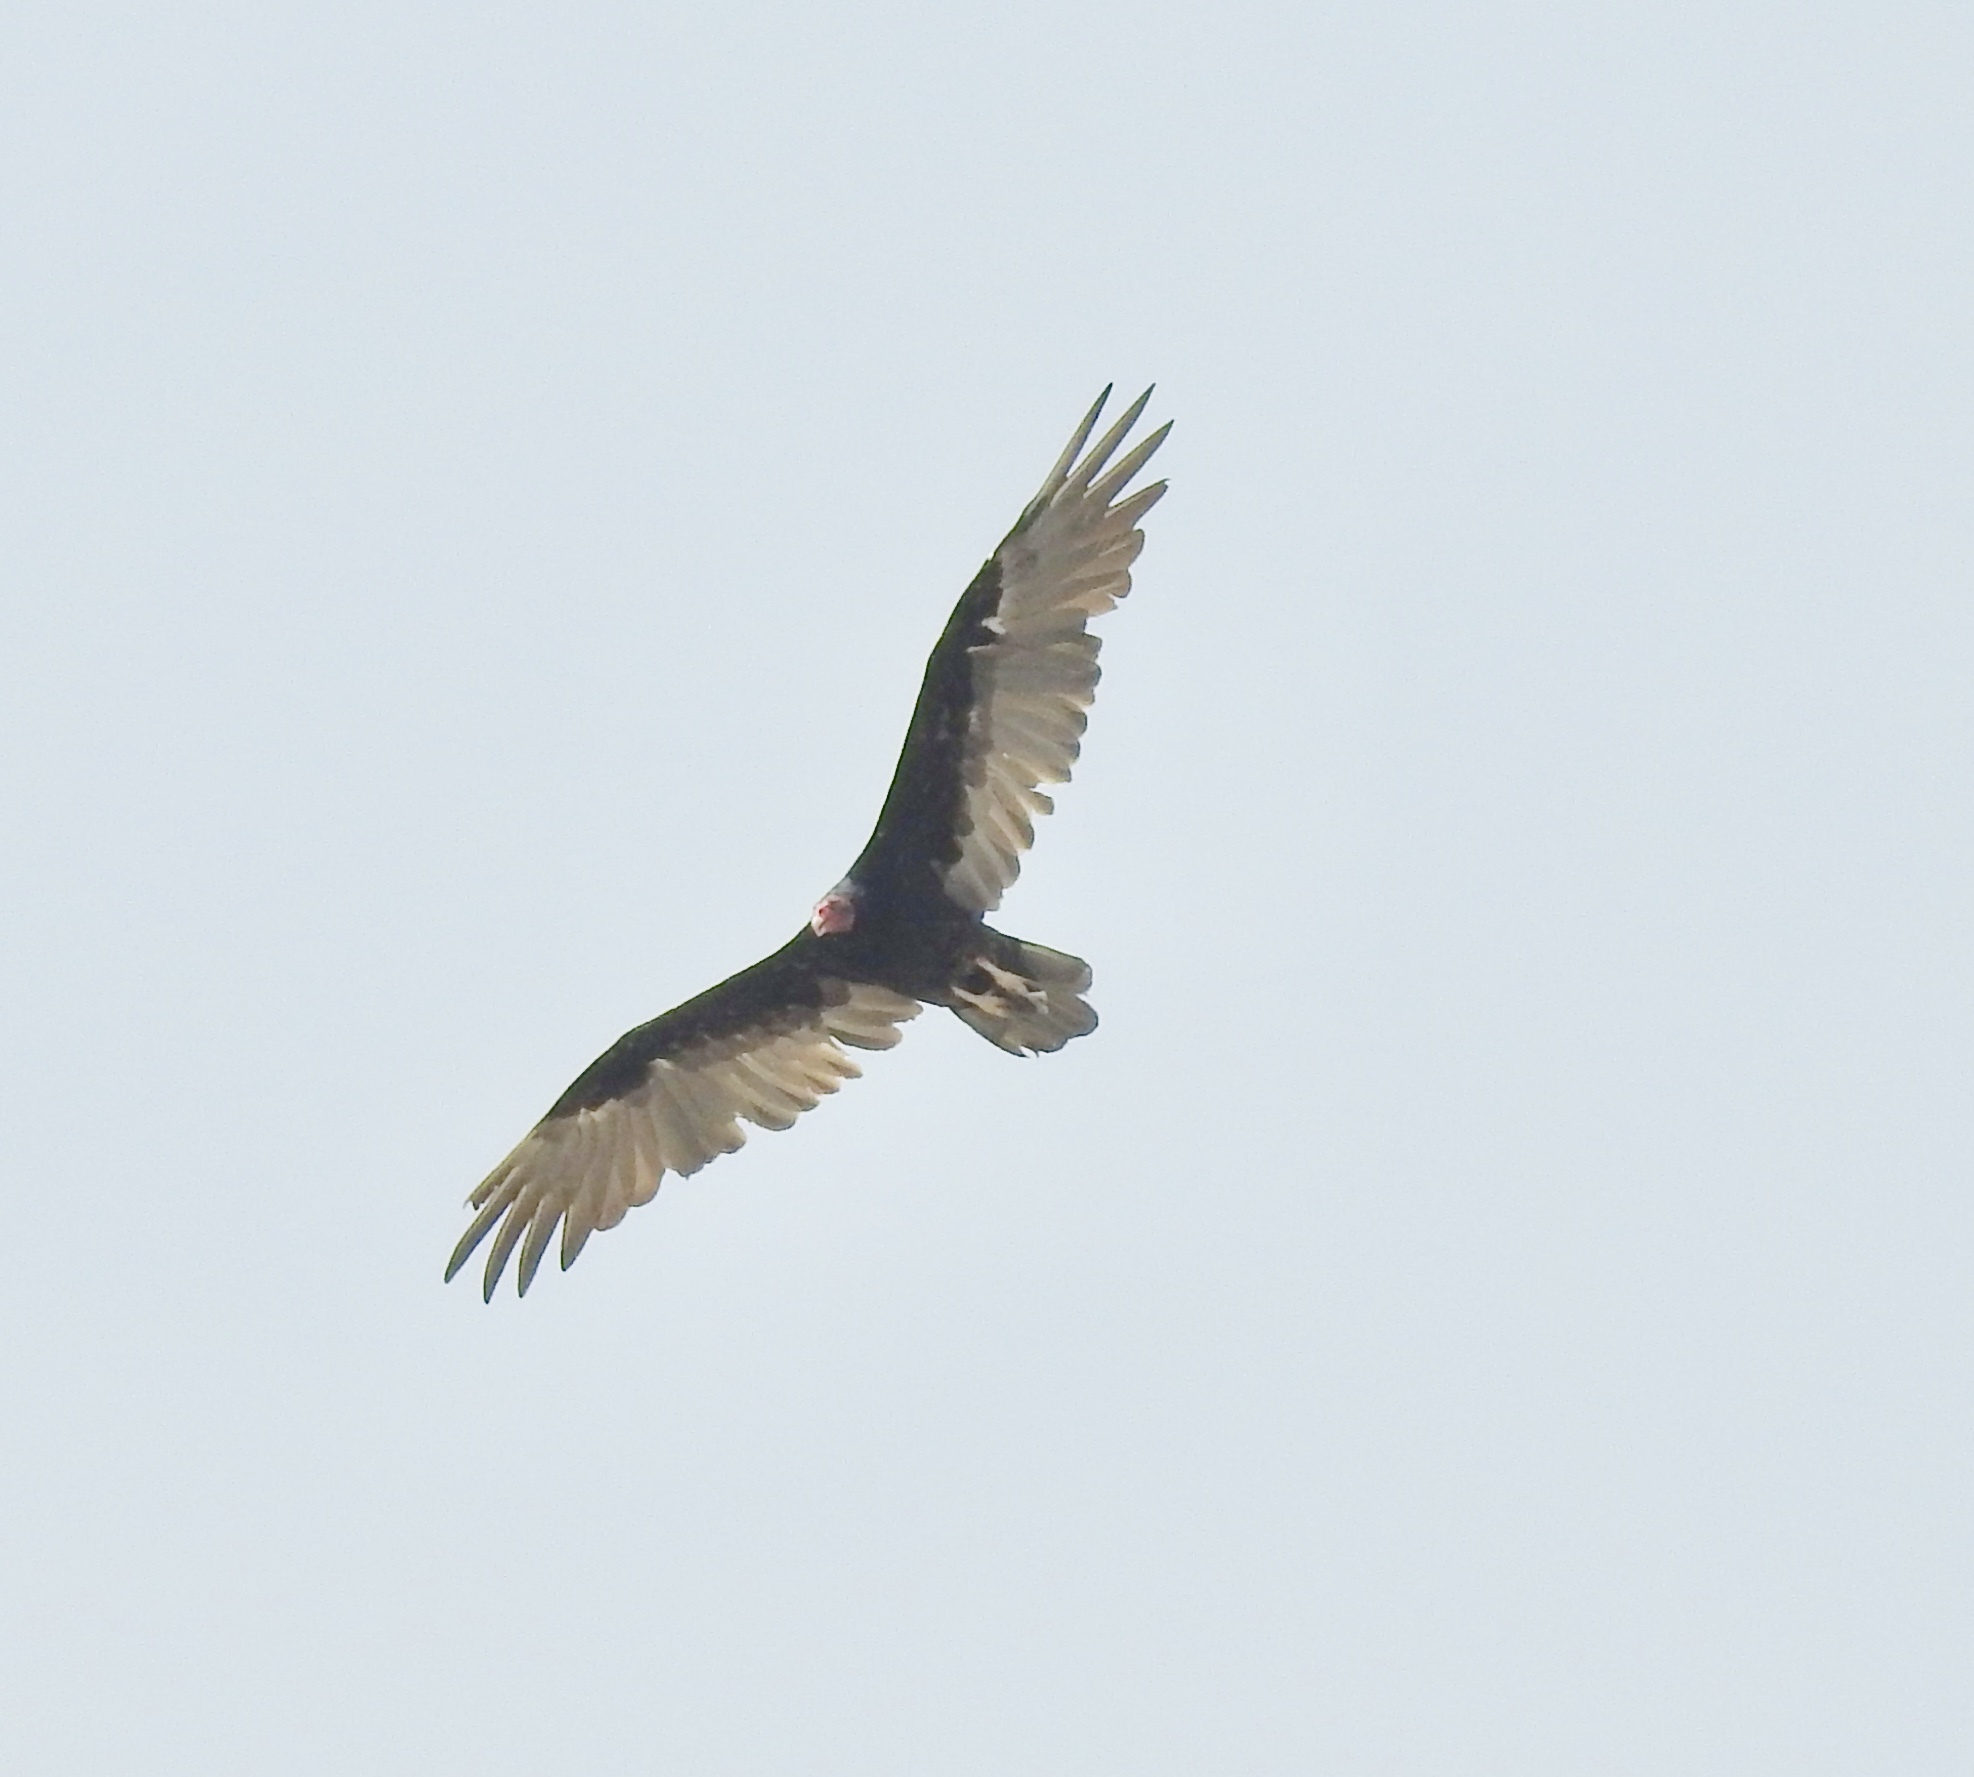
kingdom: Animalia
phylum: Chordata
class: Aves
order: Accipitriformes
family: Cathartidae
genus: Cathartes
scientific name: Cathartes aura
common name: Turkey vulture
